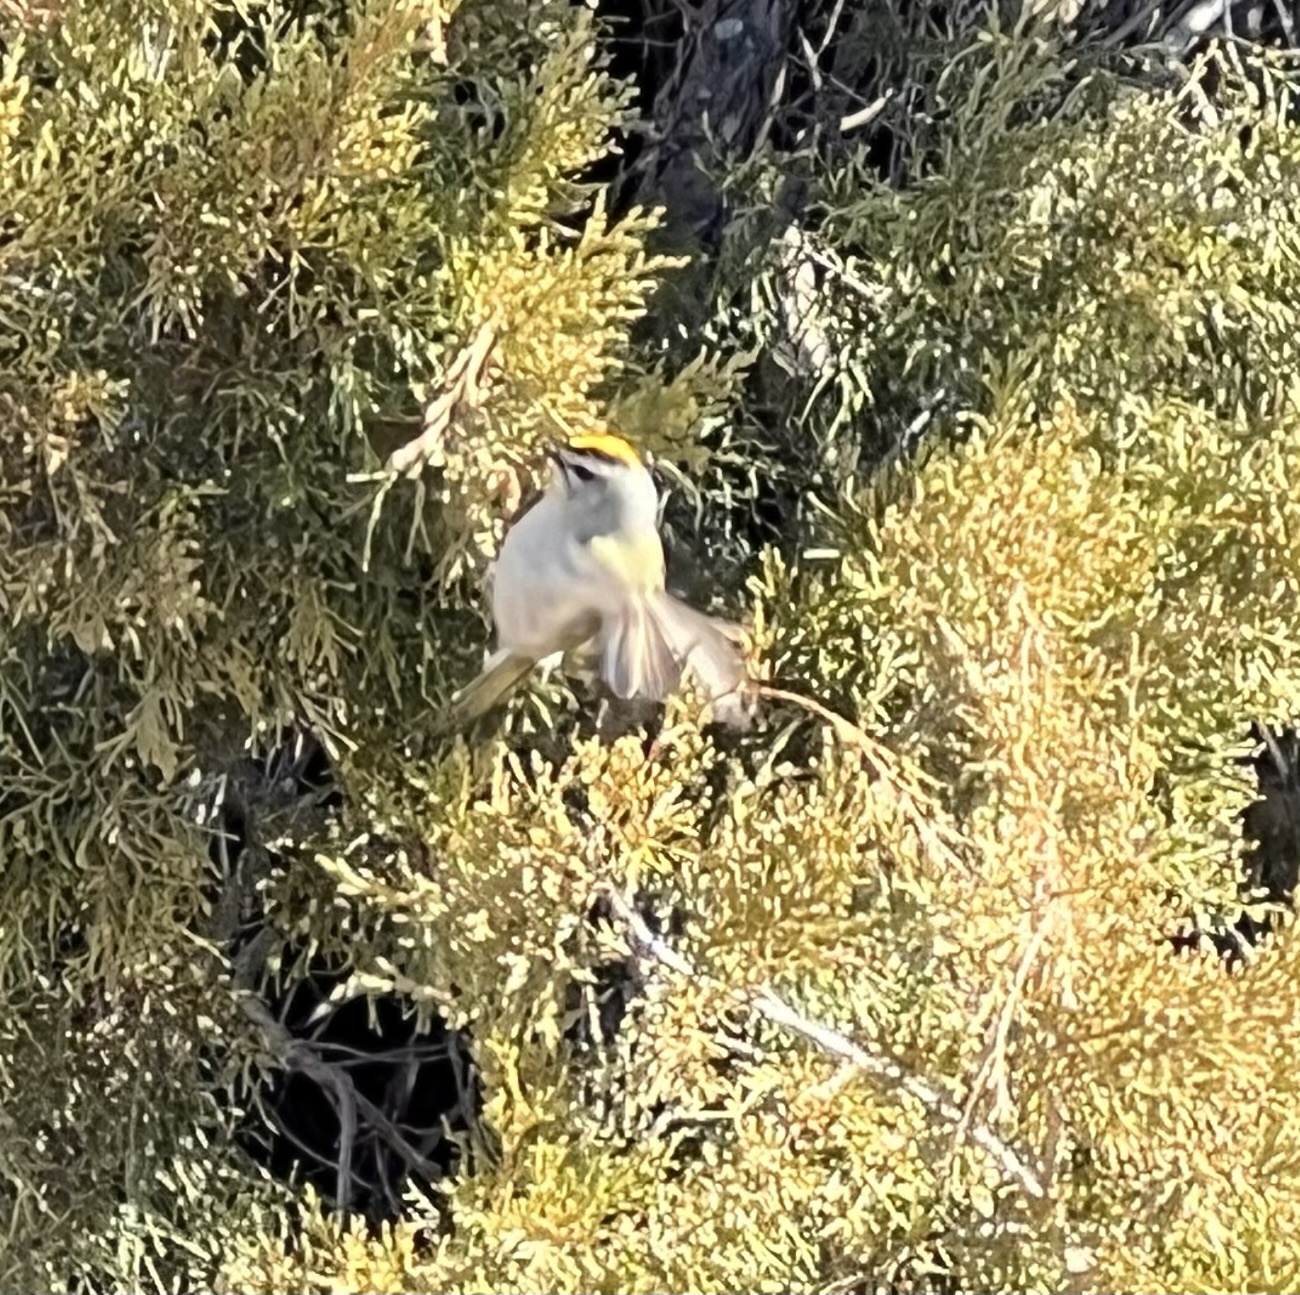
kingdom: Animalia
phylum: Chordata
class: Aves
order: Passeriformes
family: Regulidae
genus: Regulus
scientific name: Regulus satrapa
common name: Golden-crowned kinglet
